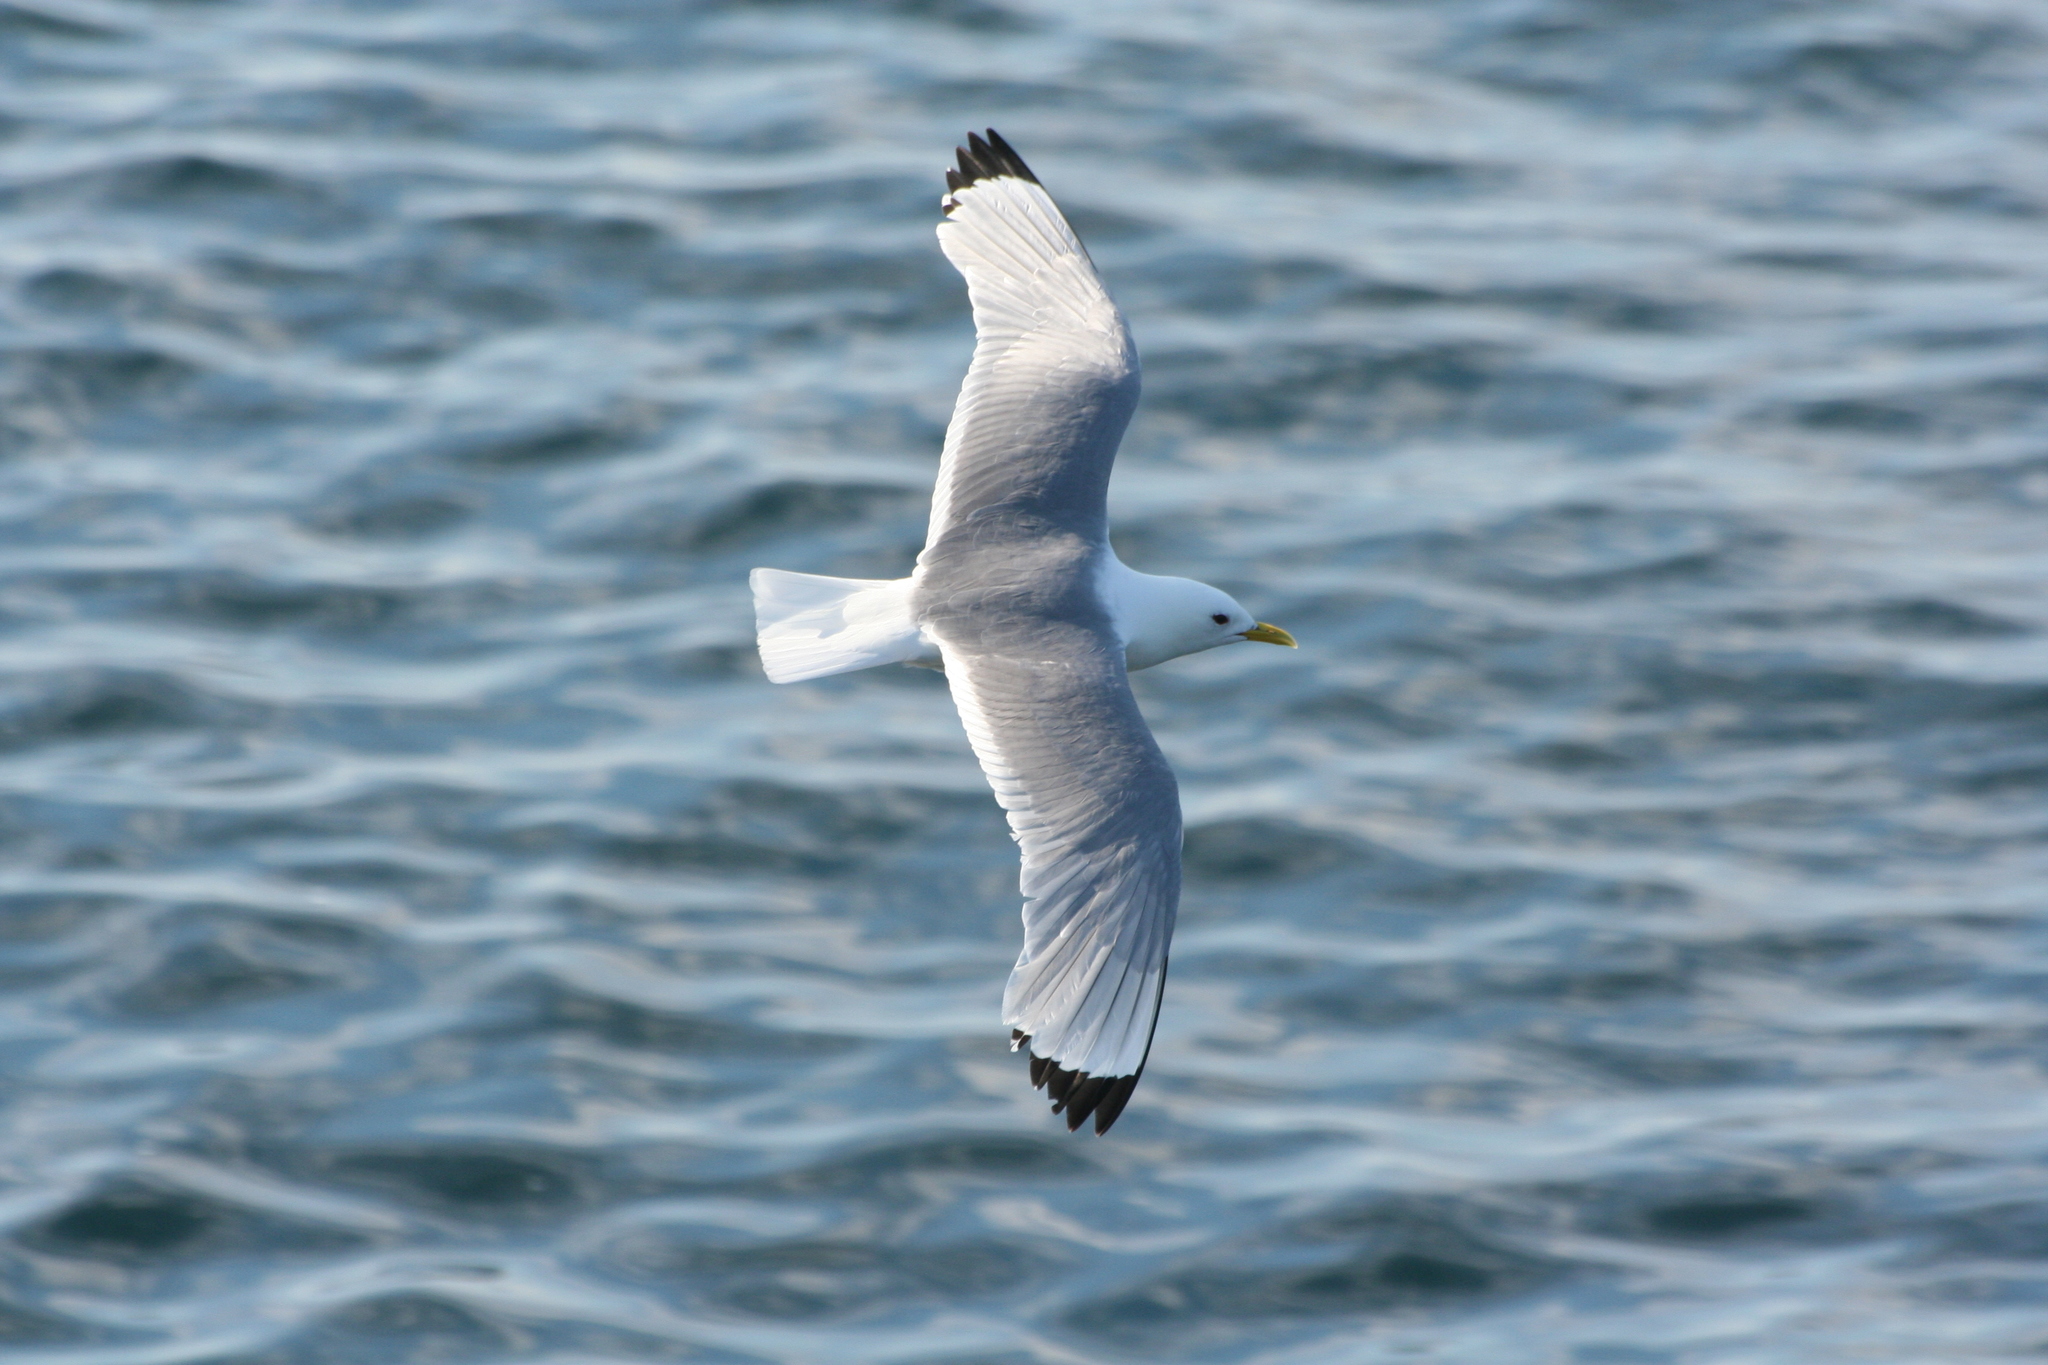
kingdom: Animalia
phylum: Chordata
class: Aves
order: Charadriiformes
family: Laridae
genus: Rissa
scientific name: Rissa tridactyla
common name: Black-legged kittiwake
